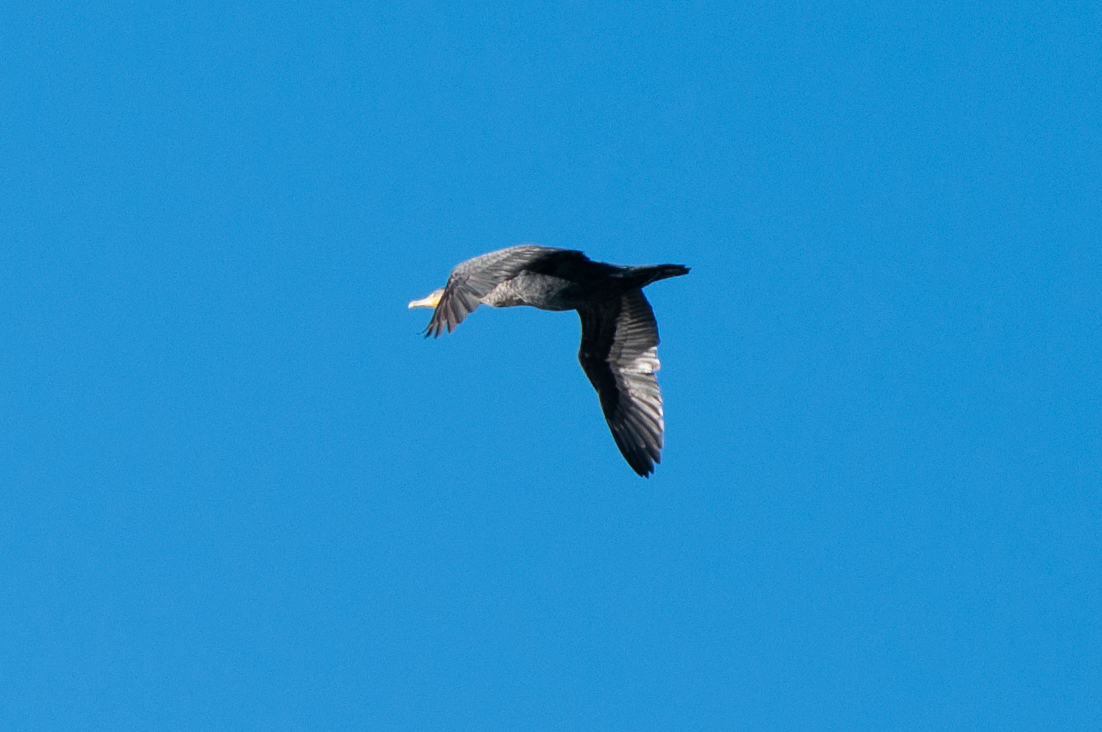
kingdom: Animalia
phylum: Chordata
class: Aves
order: Suliformes
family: Phalacrocoracidae
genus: Phalacrocorax
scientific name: Phalacrocorax auritus
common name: Double-crested cormorant
